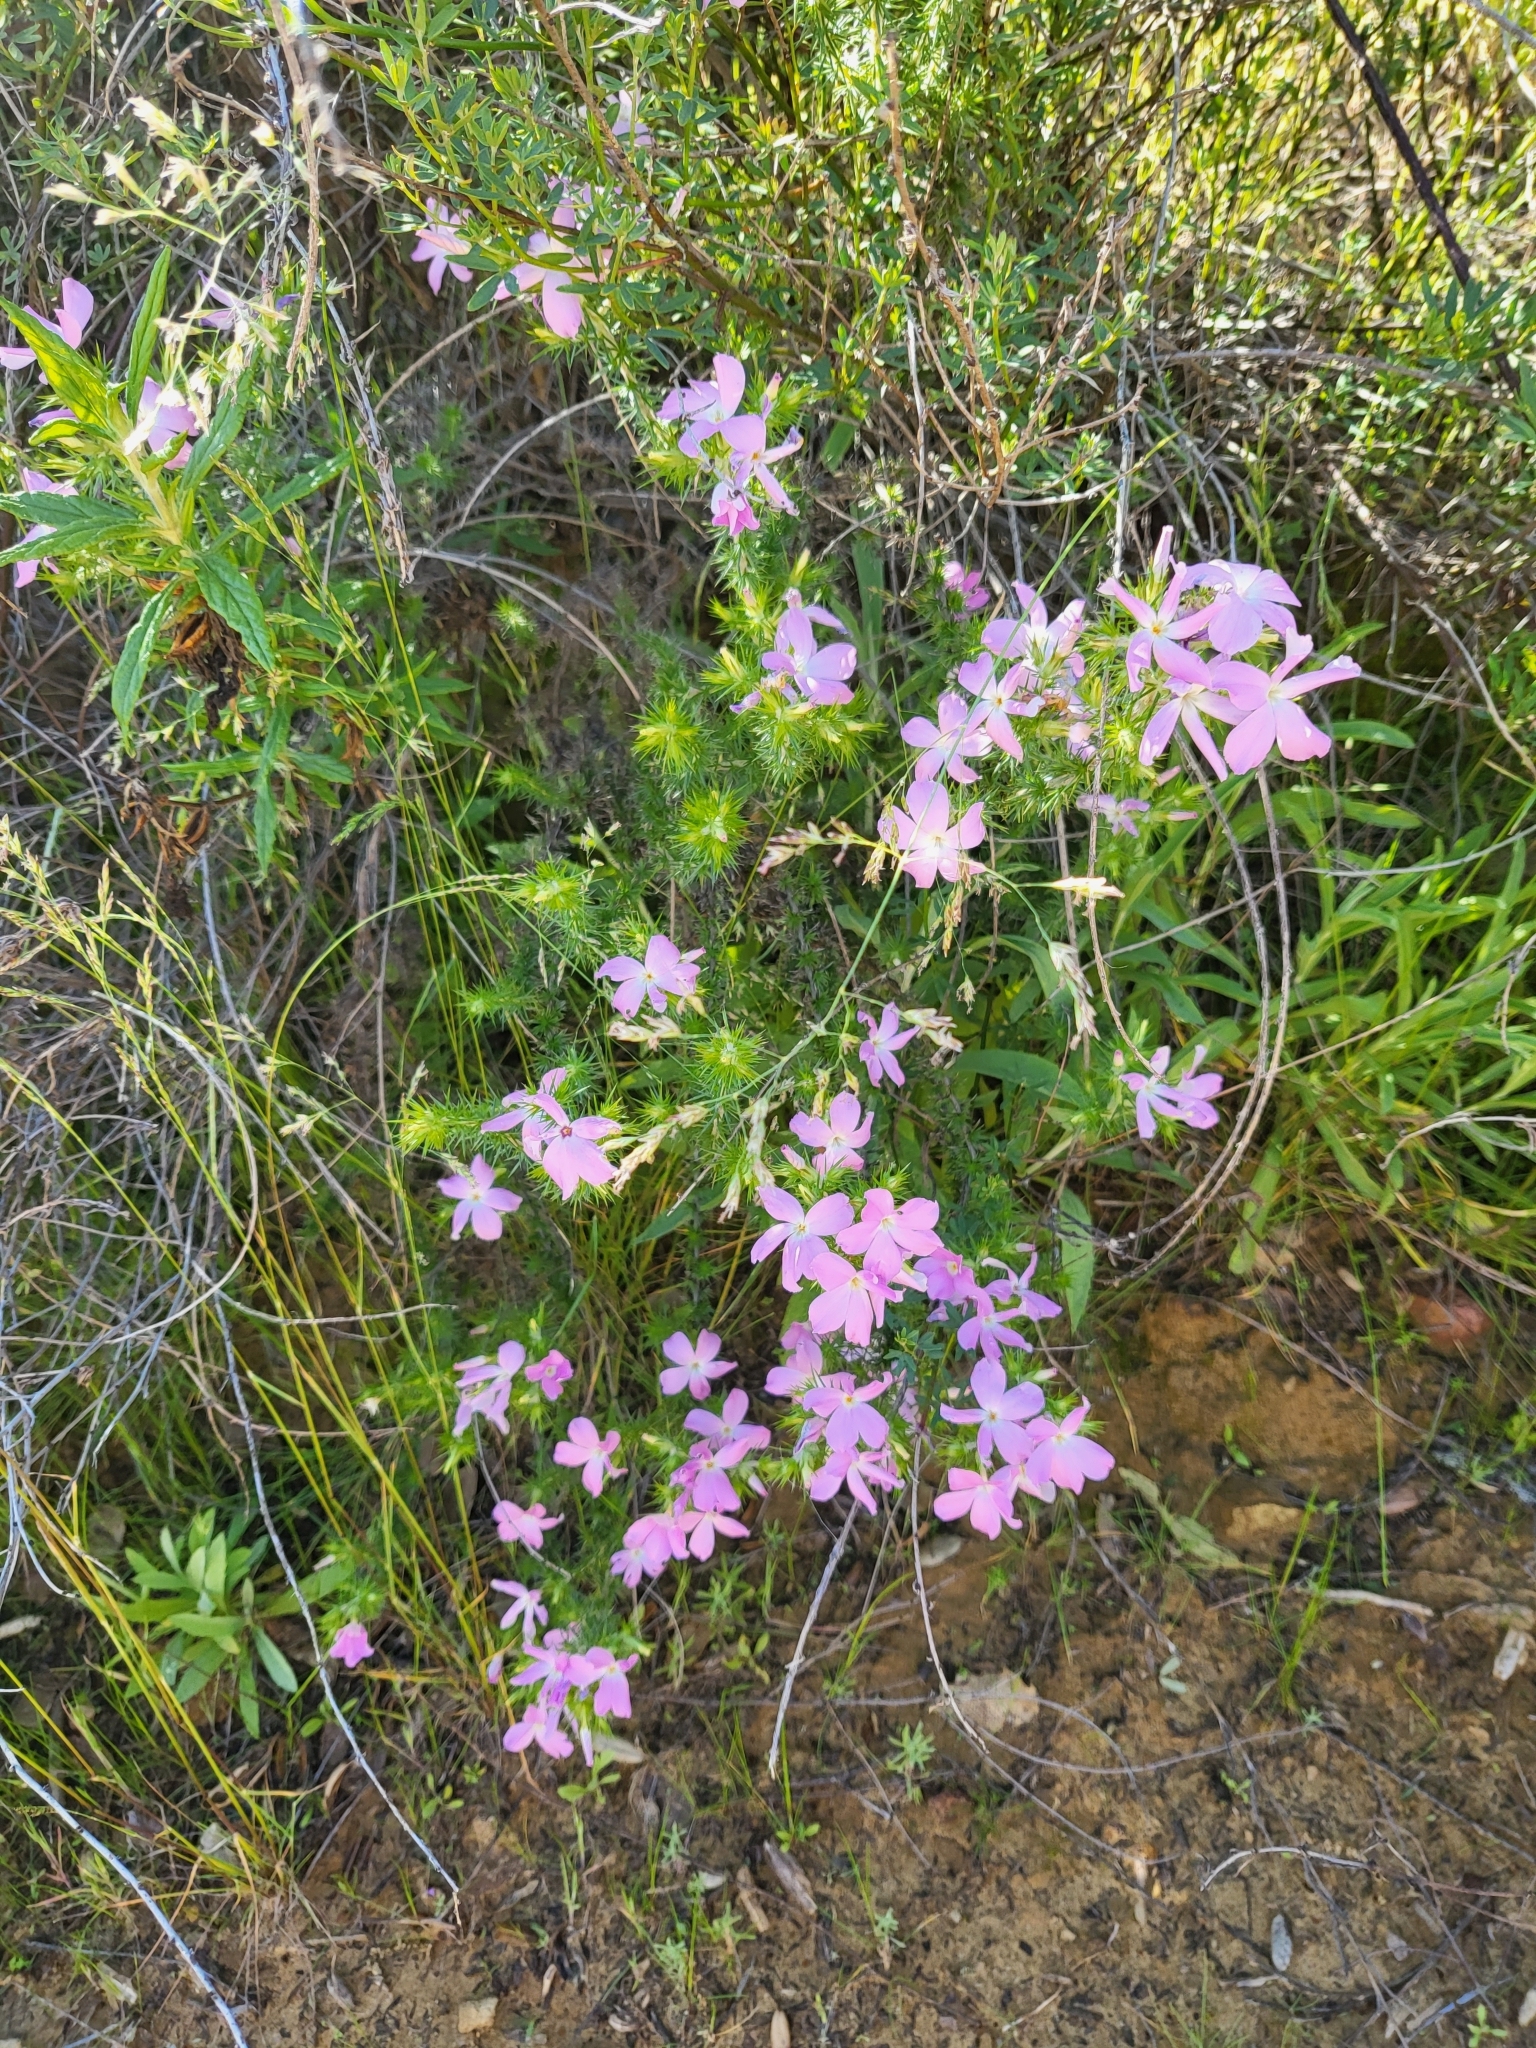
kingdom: Plantae
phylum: Tracheophyta
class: Magnoliopsida
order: Ericales
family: Polemoniaceae
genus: Linanthus
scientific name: Linanthus californicus
